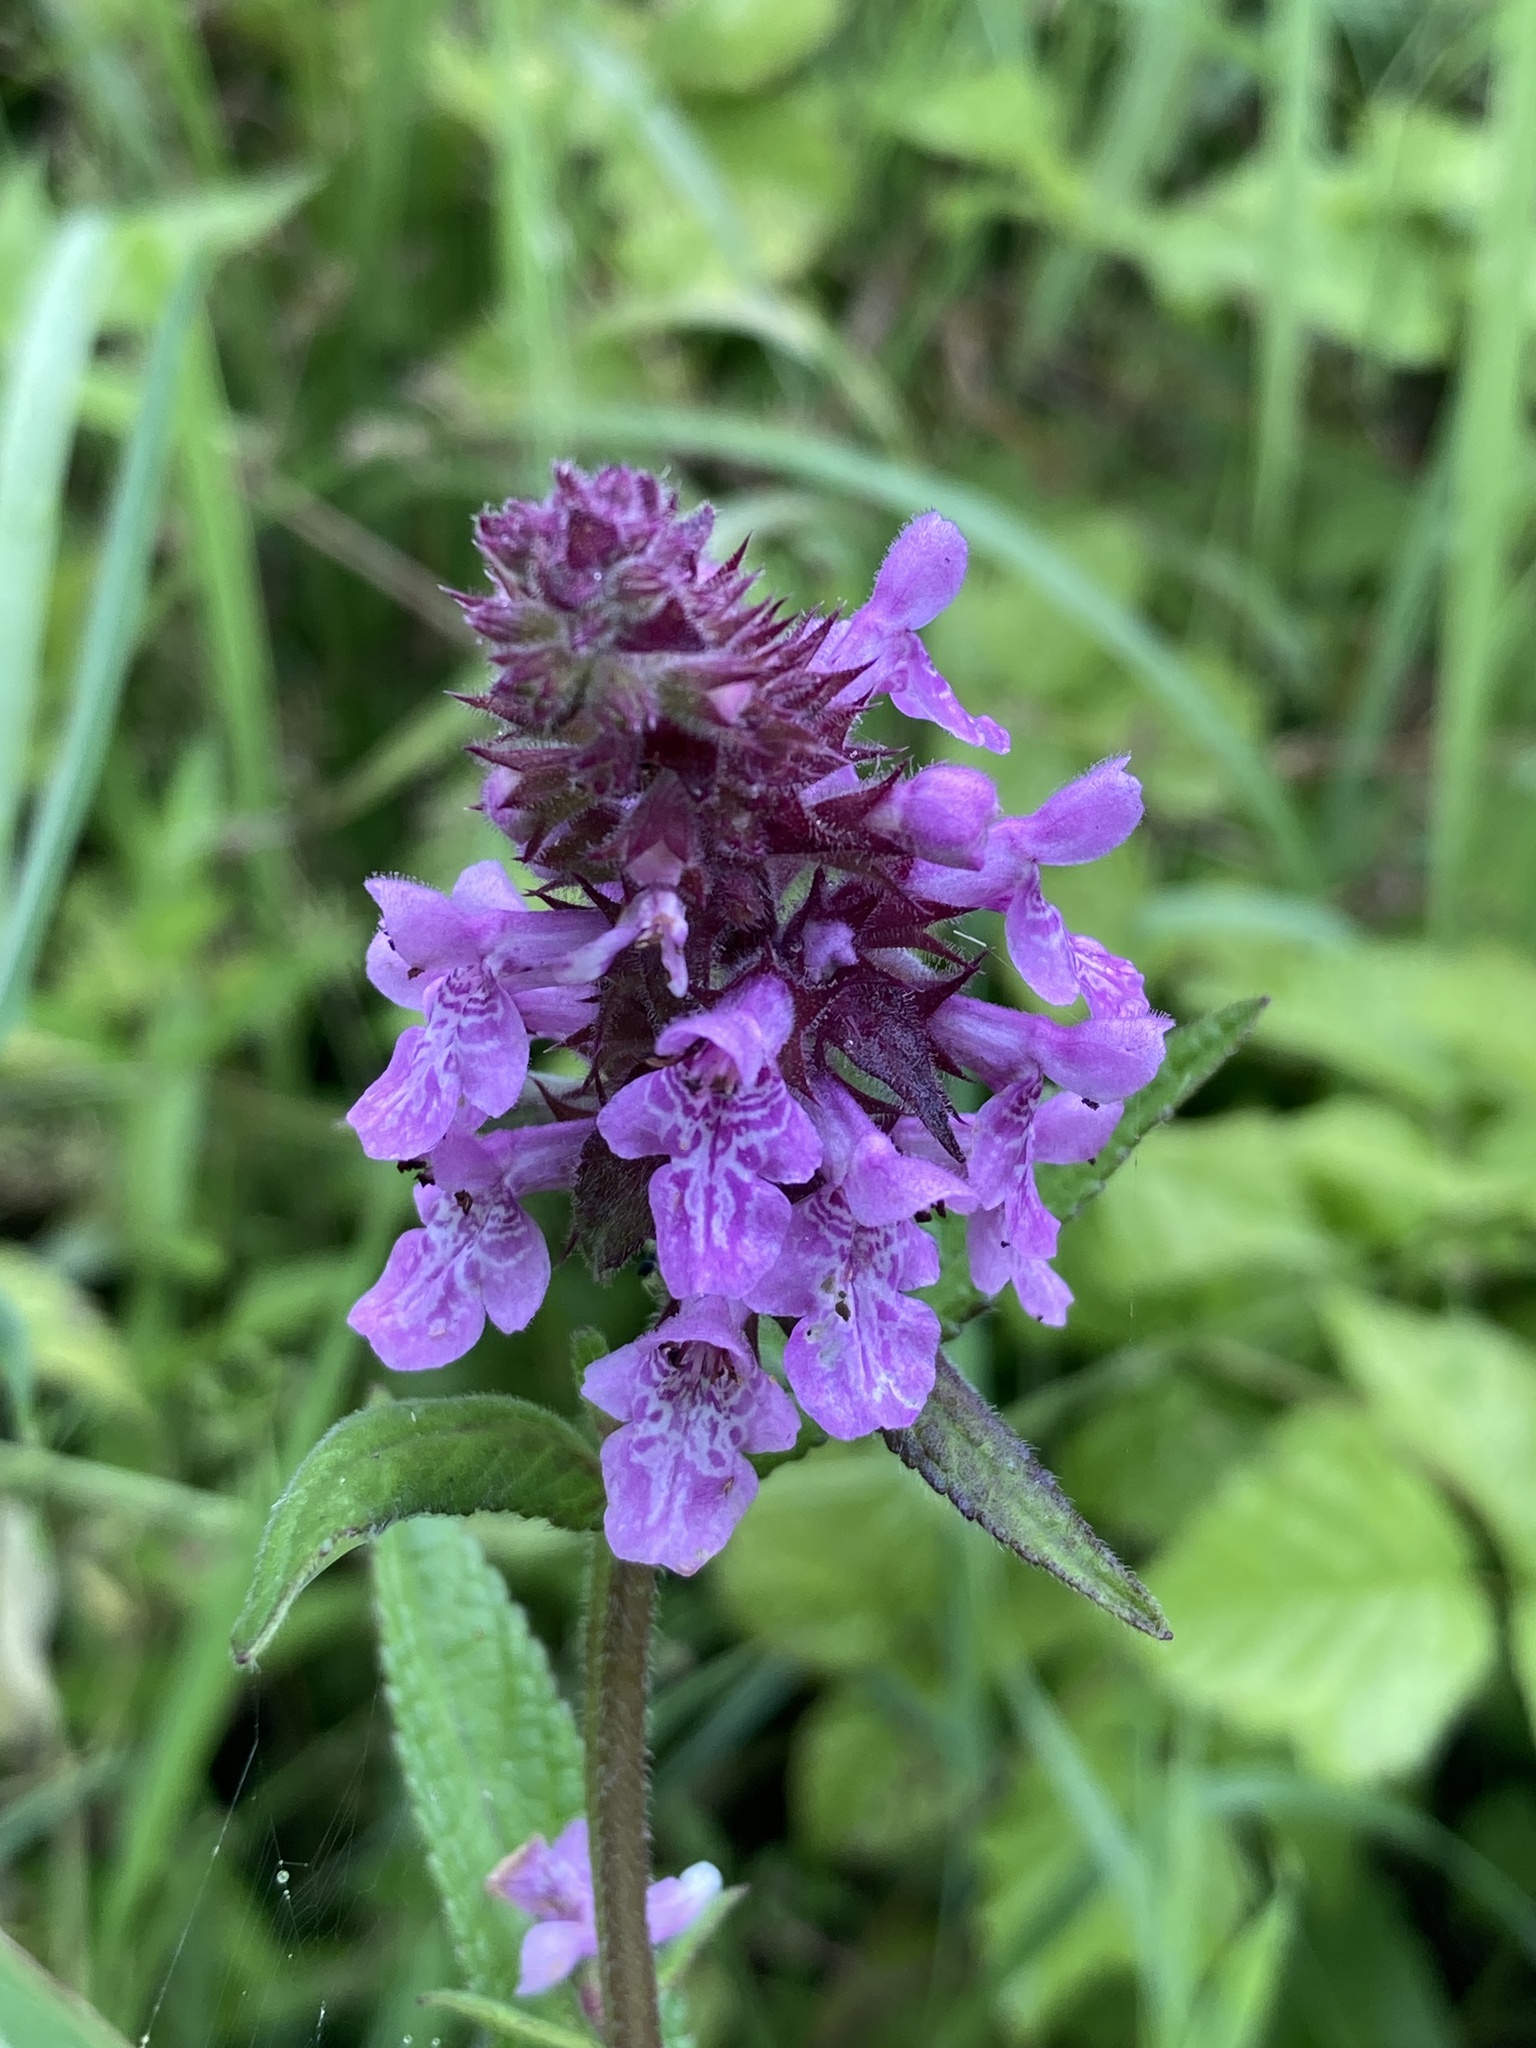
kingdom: Plantae
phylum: Tracheophyta
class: Magnoliopsida
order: Lamiales
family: Lamiaceae
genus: Stachys
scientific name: Stachys palustris
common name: Marsh woundwort
